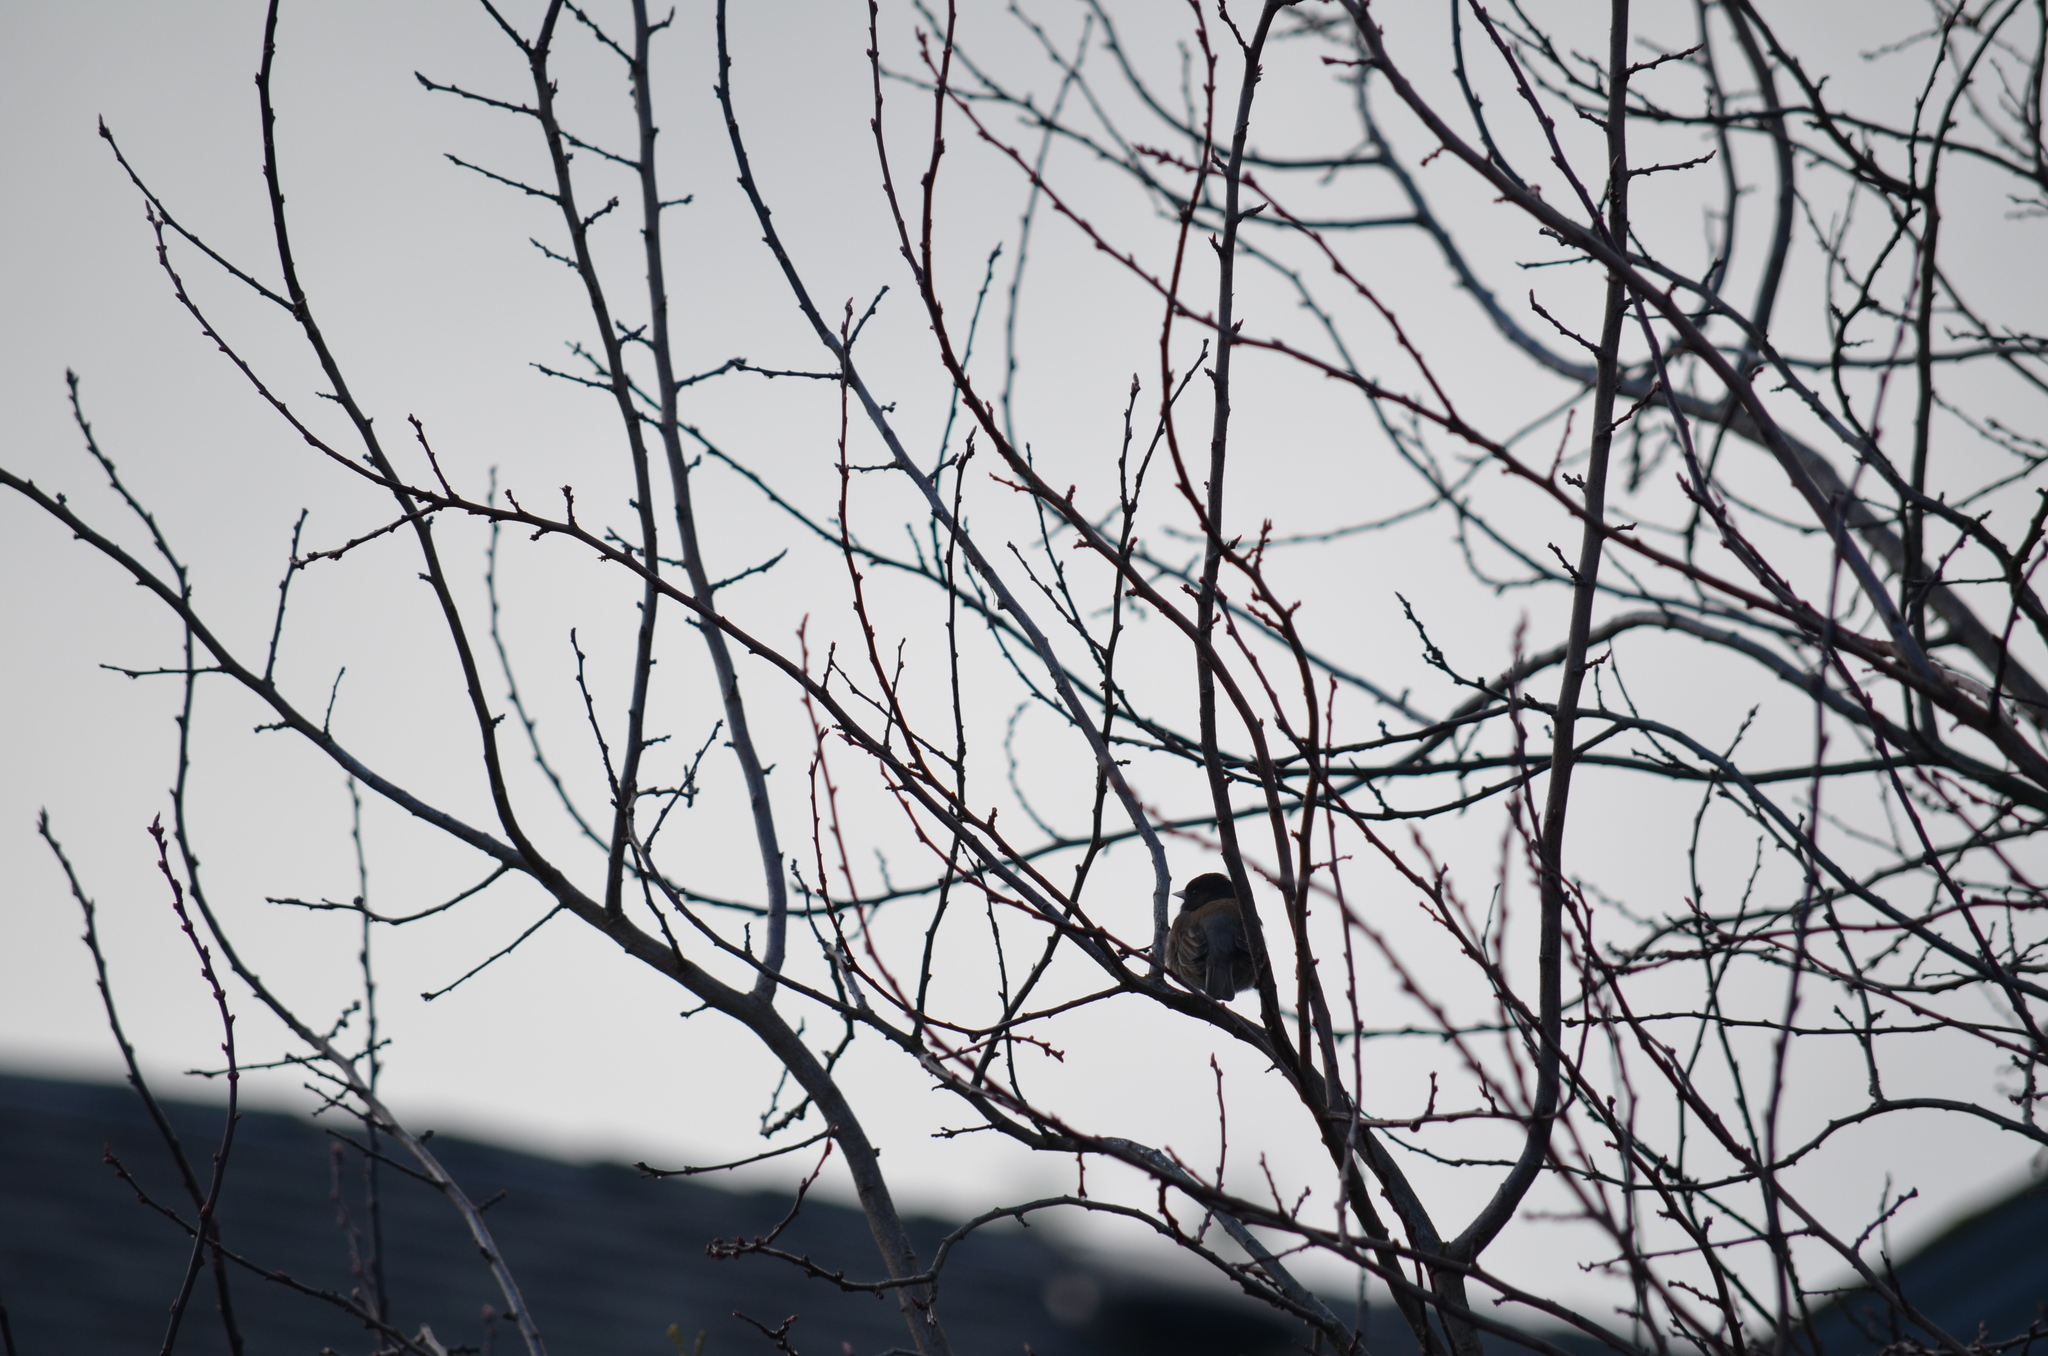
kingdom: Animalia
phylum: Chordata
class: Aves
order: Passeriformes
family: Passerellidae
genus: Junco
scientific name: Junco hyemalis
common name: Dark-eyed junco
